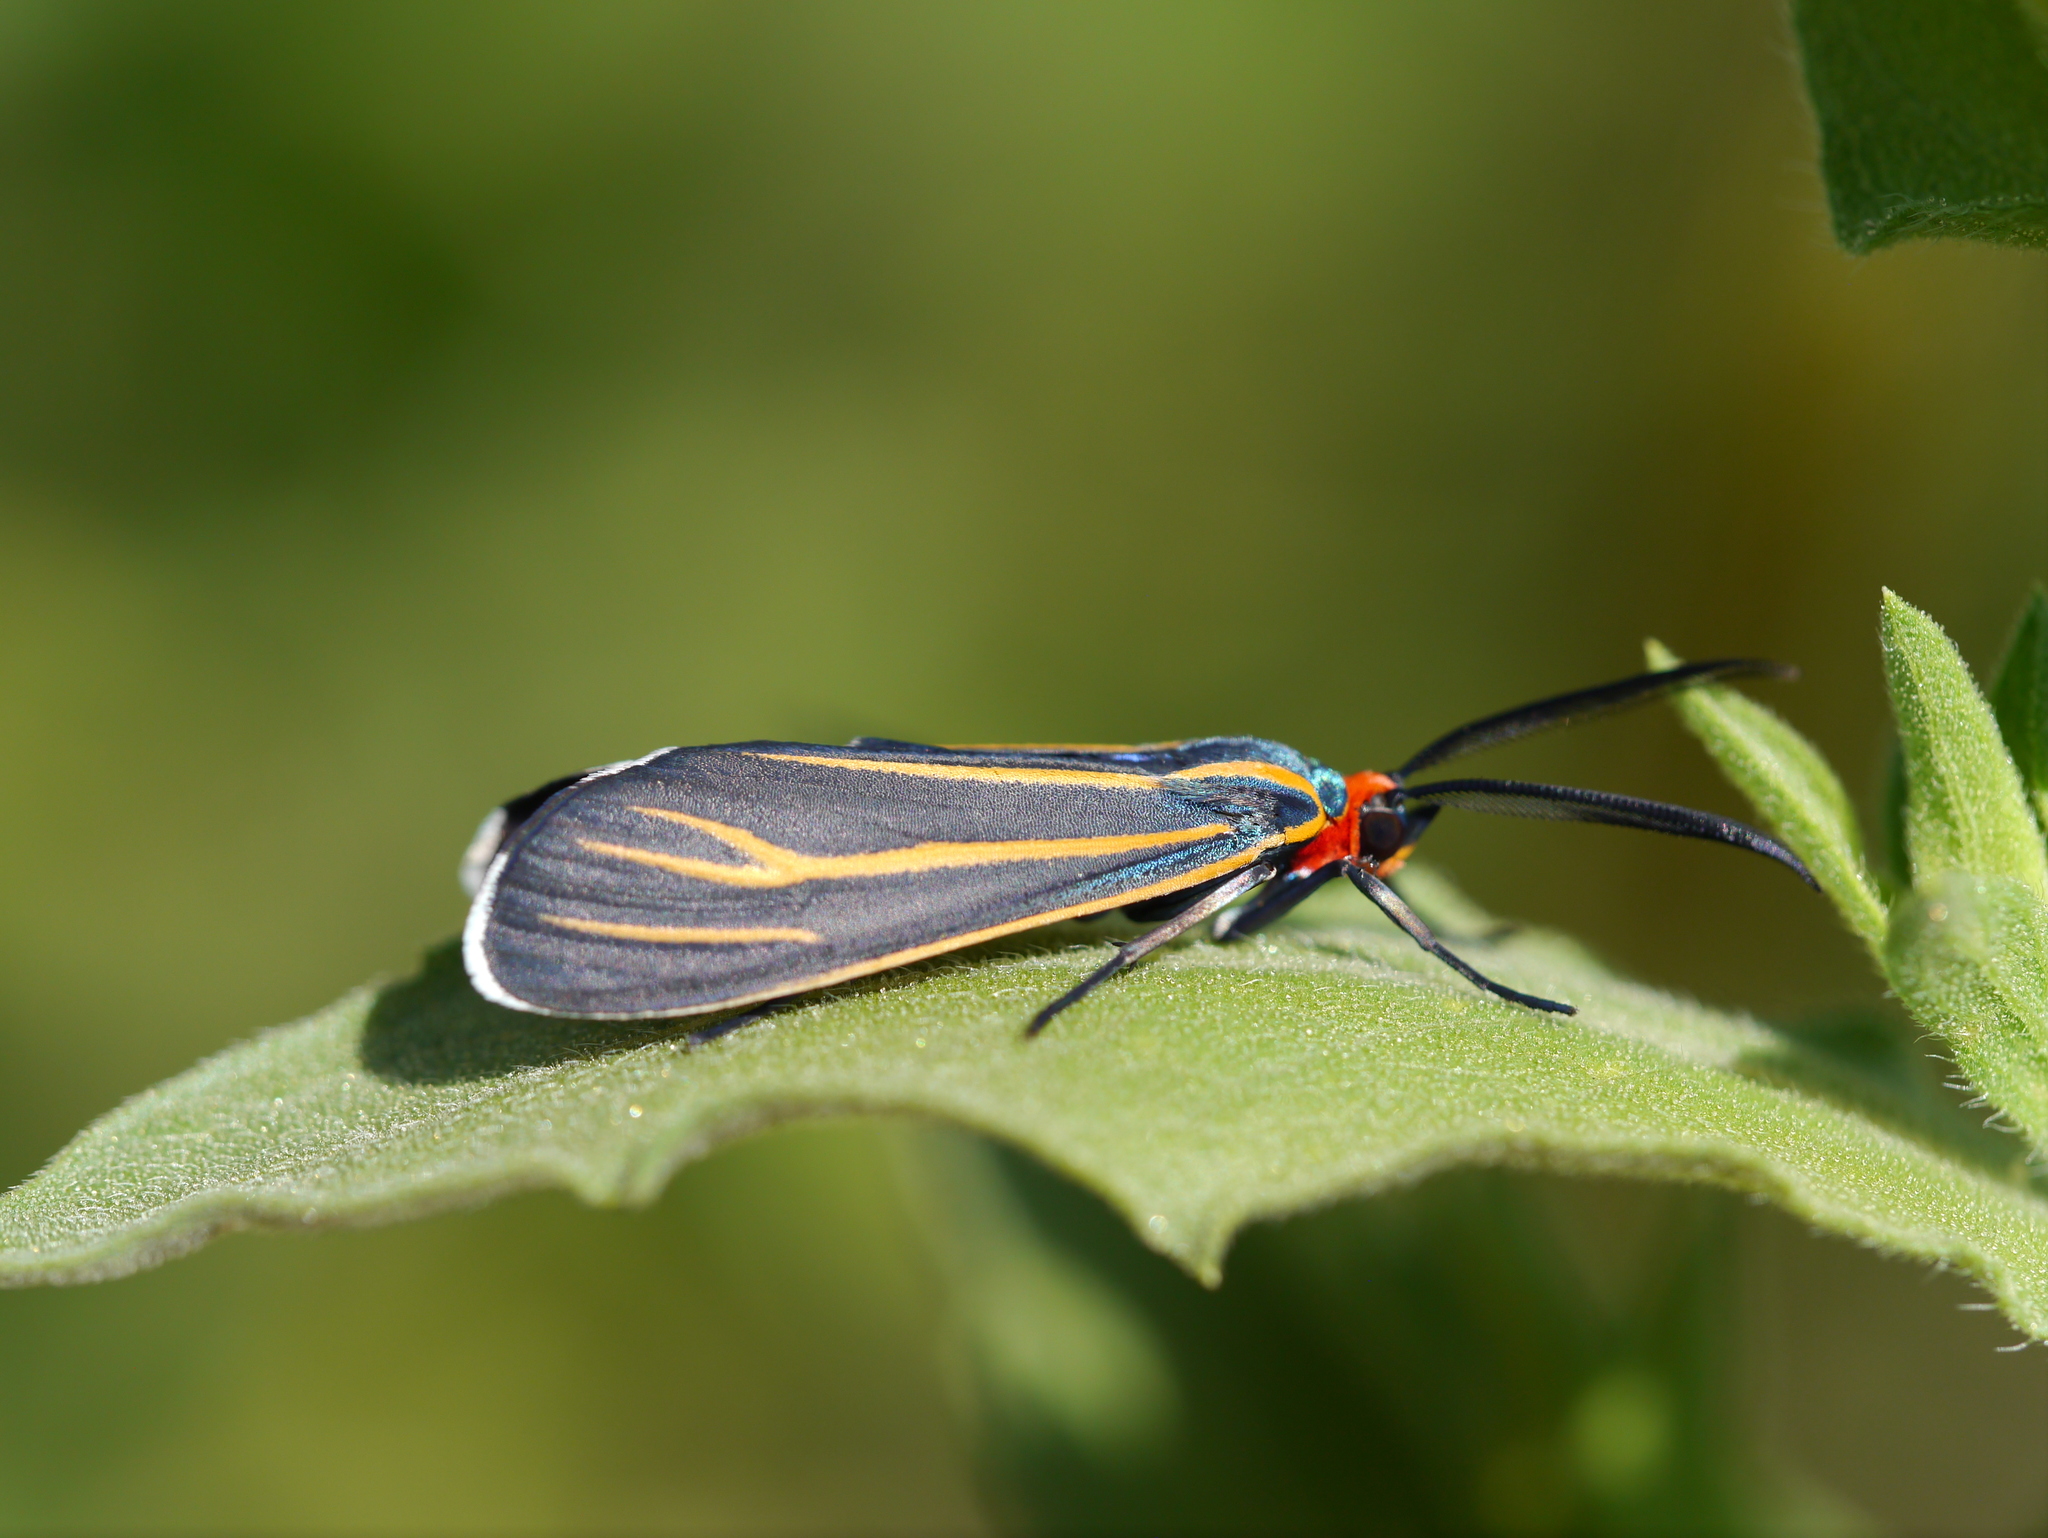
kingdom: Animalia
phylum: Arthropoda
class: Insecta
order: Lepidoptera
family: Erebidae
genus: Ctenucha
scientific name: Ctenucha venosa
